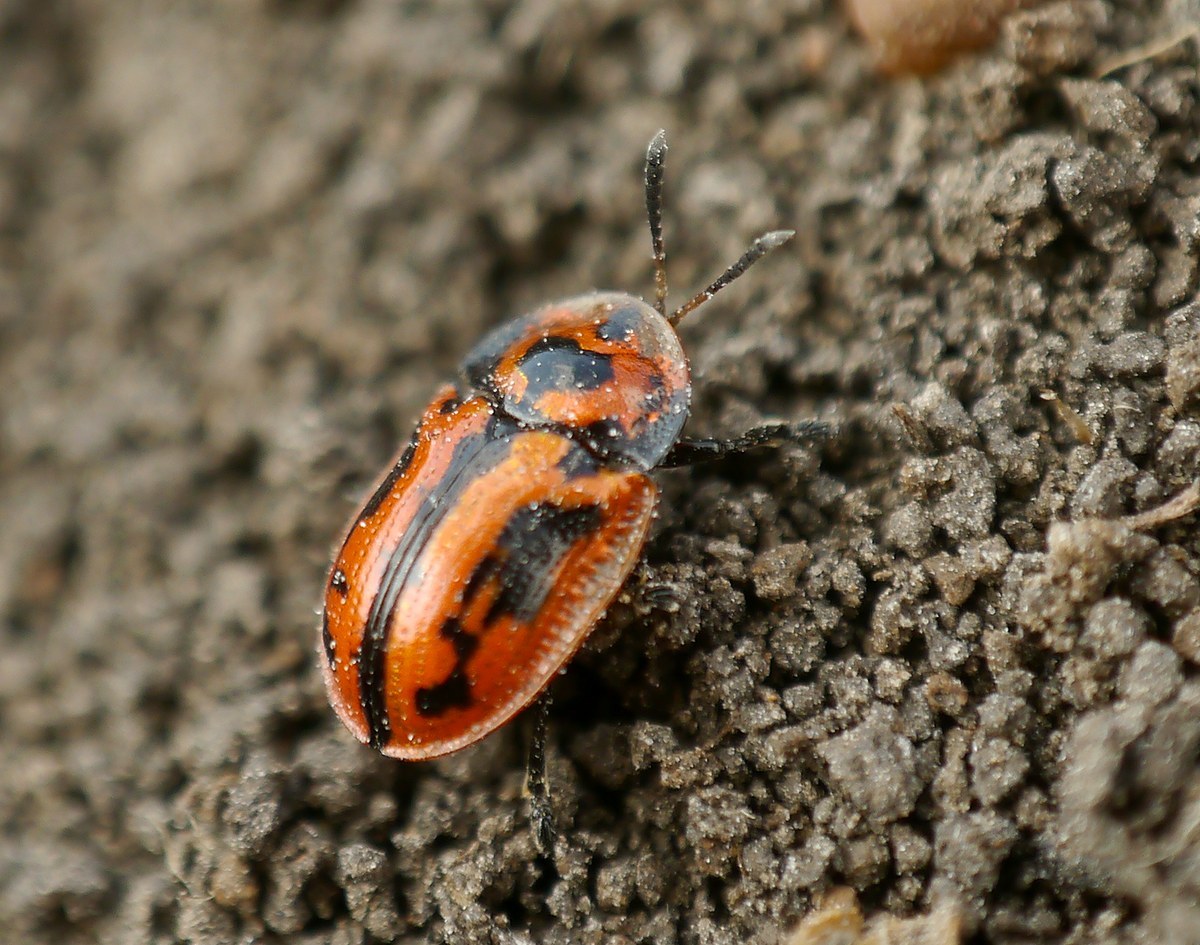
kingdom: Animalia
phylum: Arthropoda
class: Insecta
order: Coleoptera
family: Chrysomelidae
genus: Pilemostoma
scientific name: Pilemostoma fastuosa
